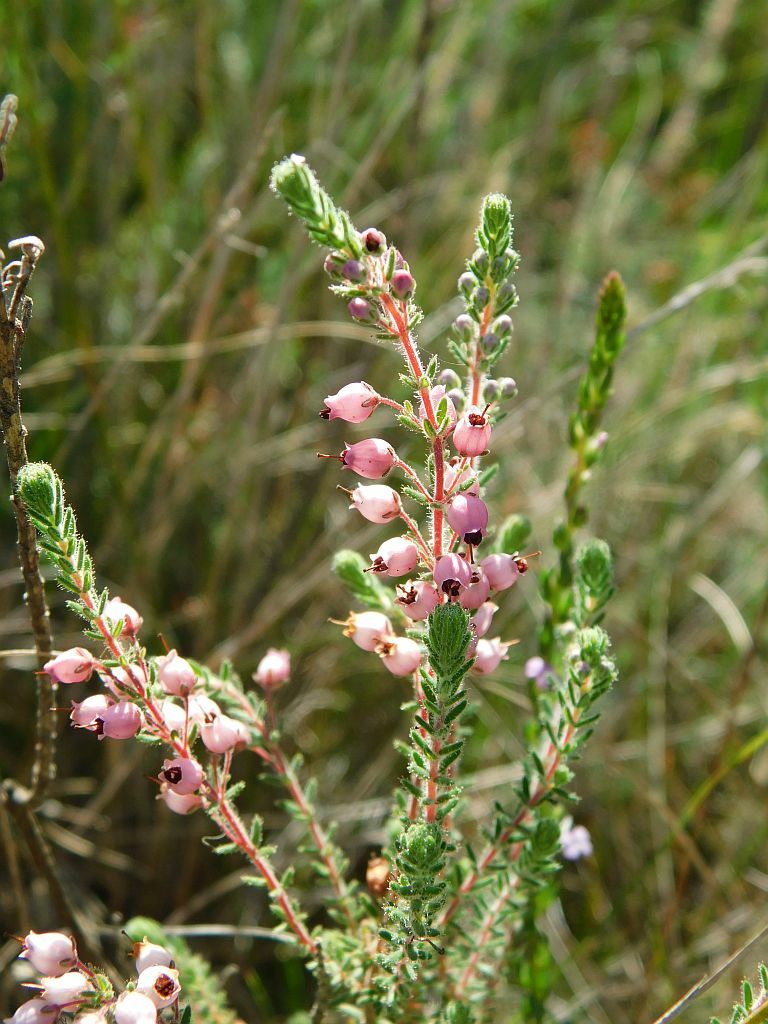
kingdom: Plantae
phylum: Tracheophyta
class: Magnoliopsida
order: Ericales
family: Ericaceae
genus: Erica
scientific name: Erica hirta
